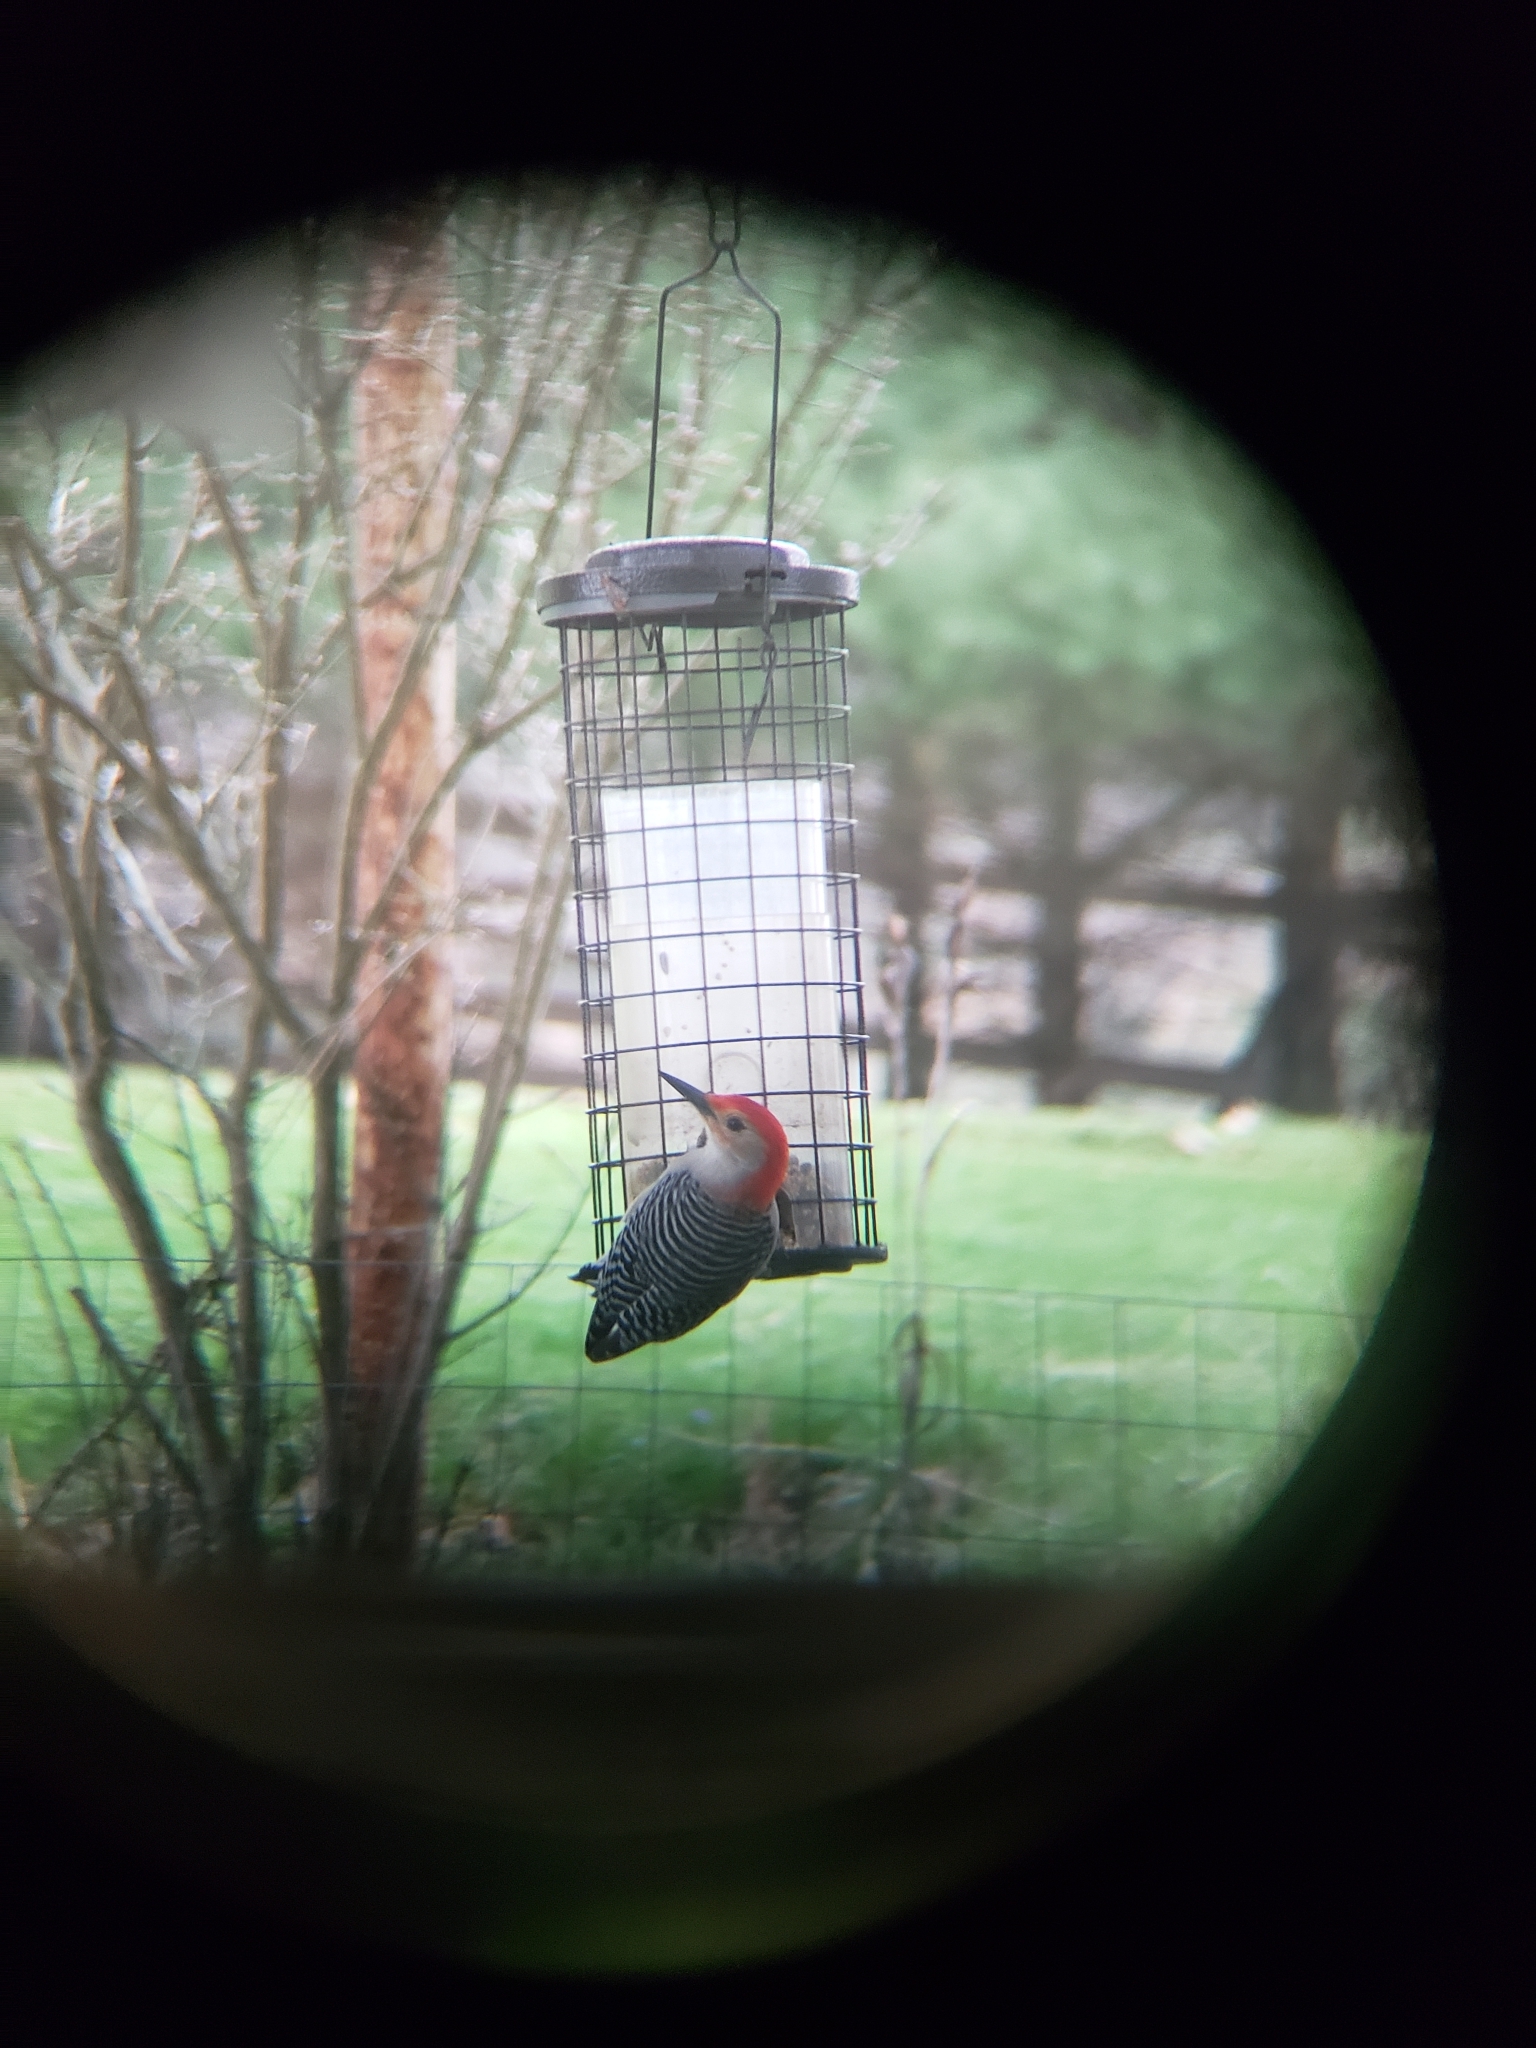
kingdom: Animalia
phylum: Chordata
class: Aves
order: Piciformes
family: Picidae
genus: Melanerpes
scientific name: Melanerpes carolinus
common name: Red-bellied woodpecker
